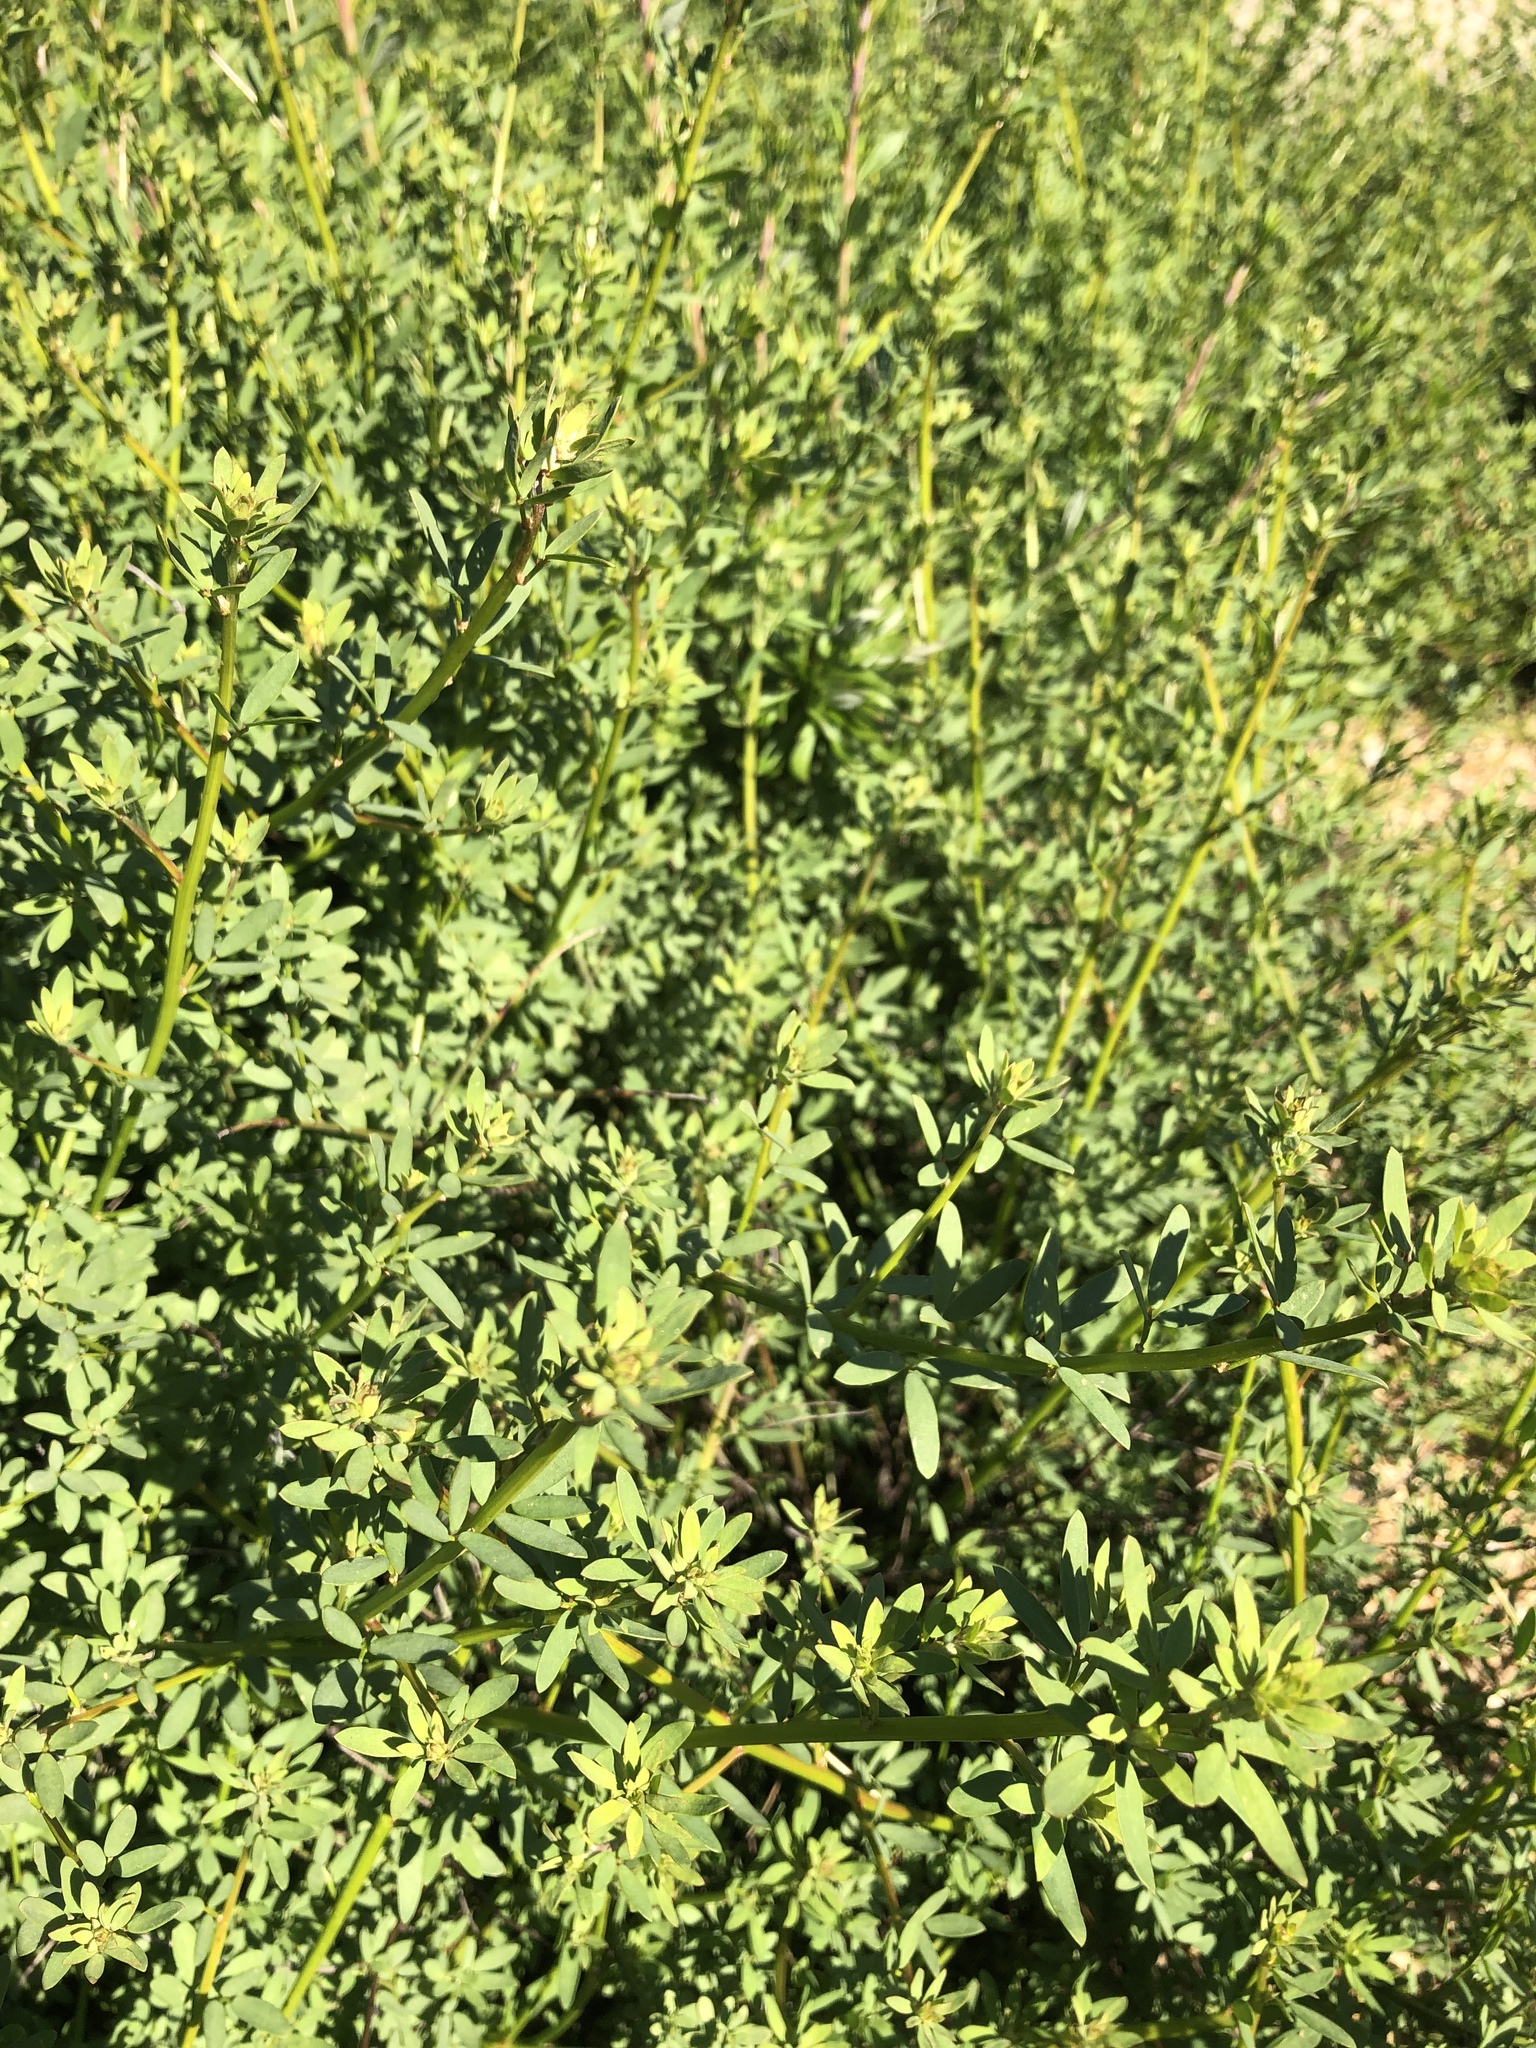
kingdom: Plantae
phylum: Tracheophyta
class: Magnoliopsida
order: Fabales
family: Fabaceae
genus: Acmispon
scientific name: Acmispon glaber
